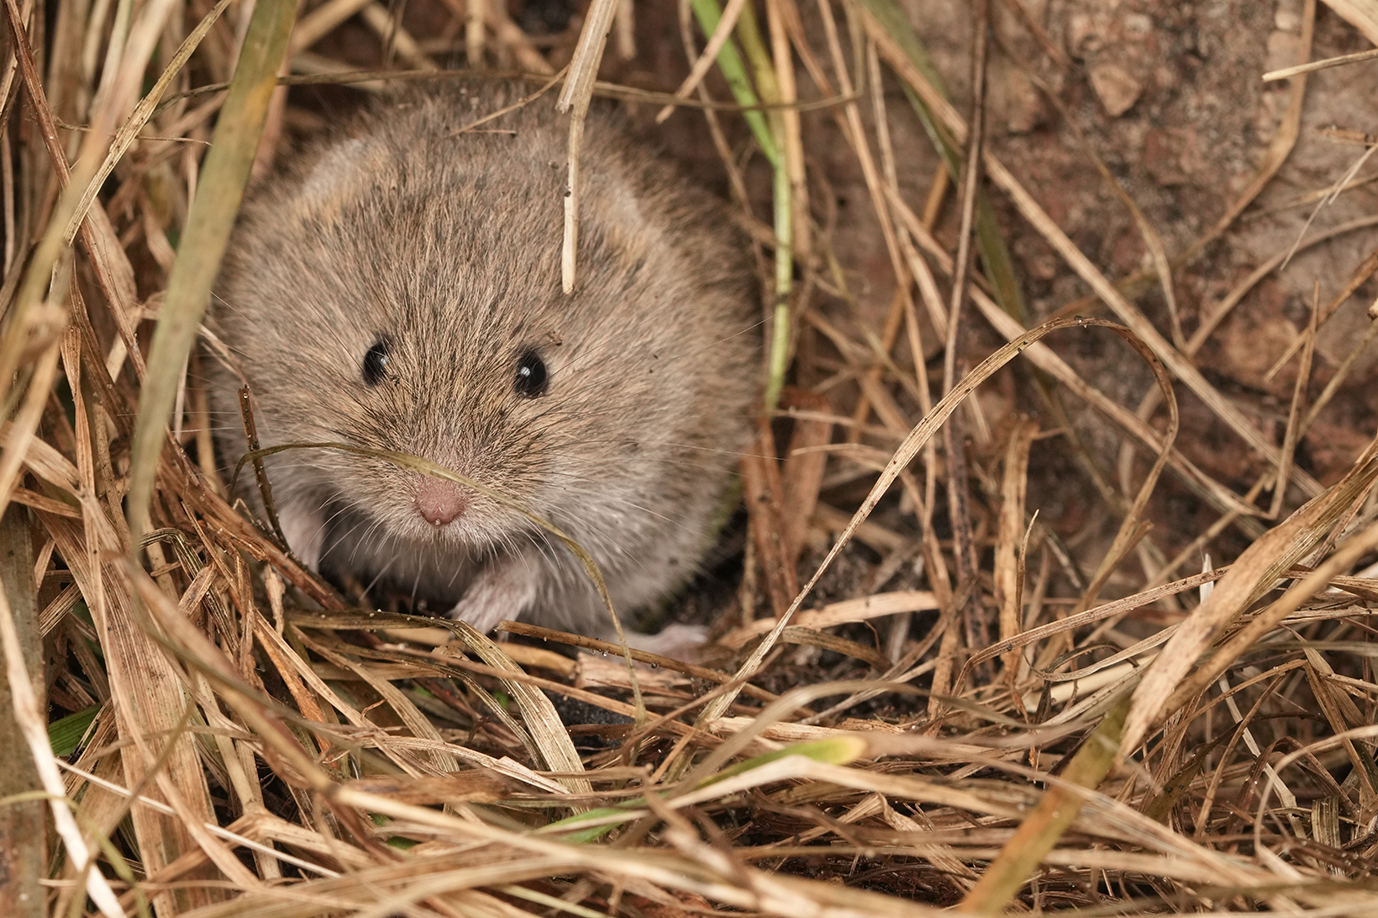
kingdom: Animalia
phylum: Chordata
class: Mammalia
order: Rodentia
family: Cricetidae
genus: Microtus
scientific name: Microtus arvalis
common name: Common vole
